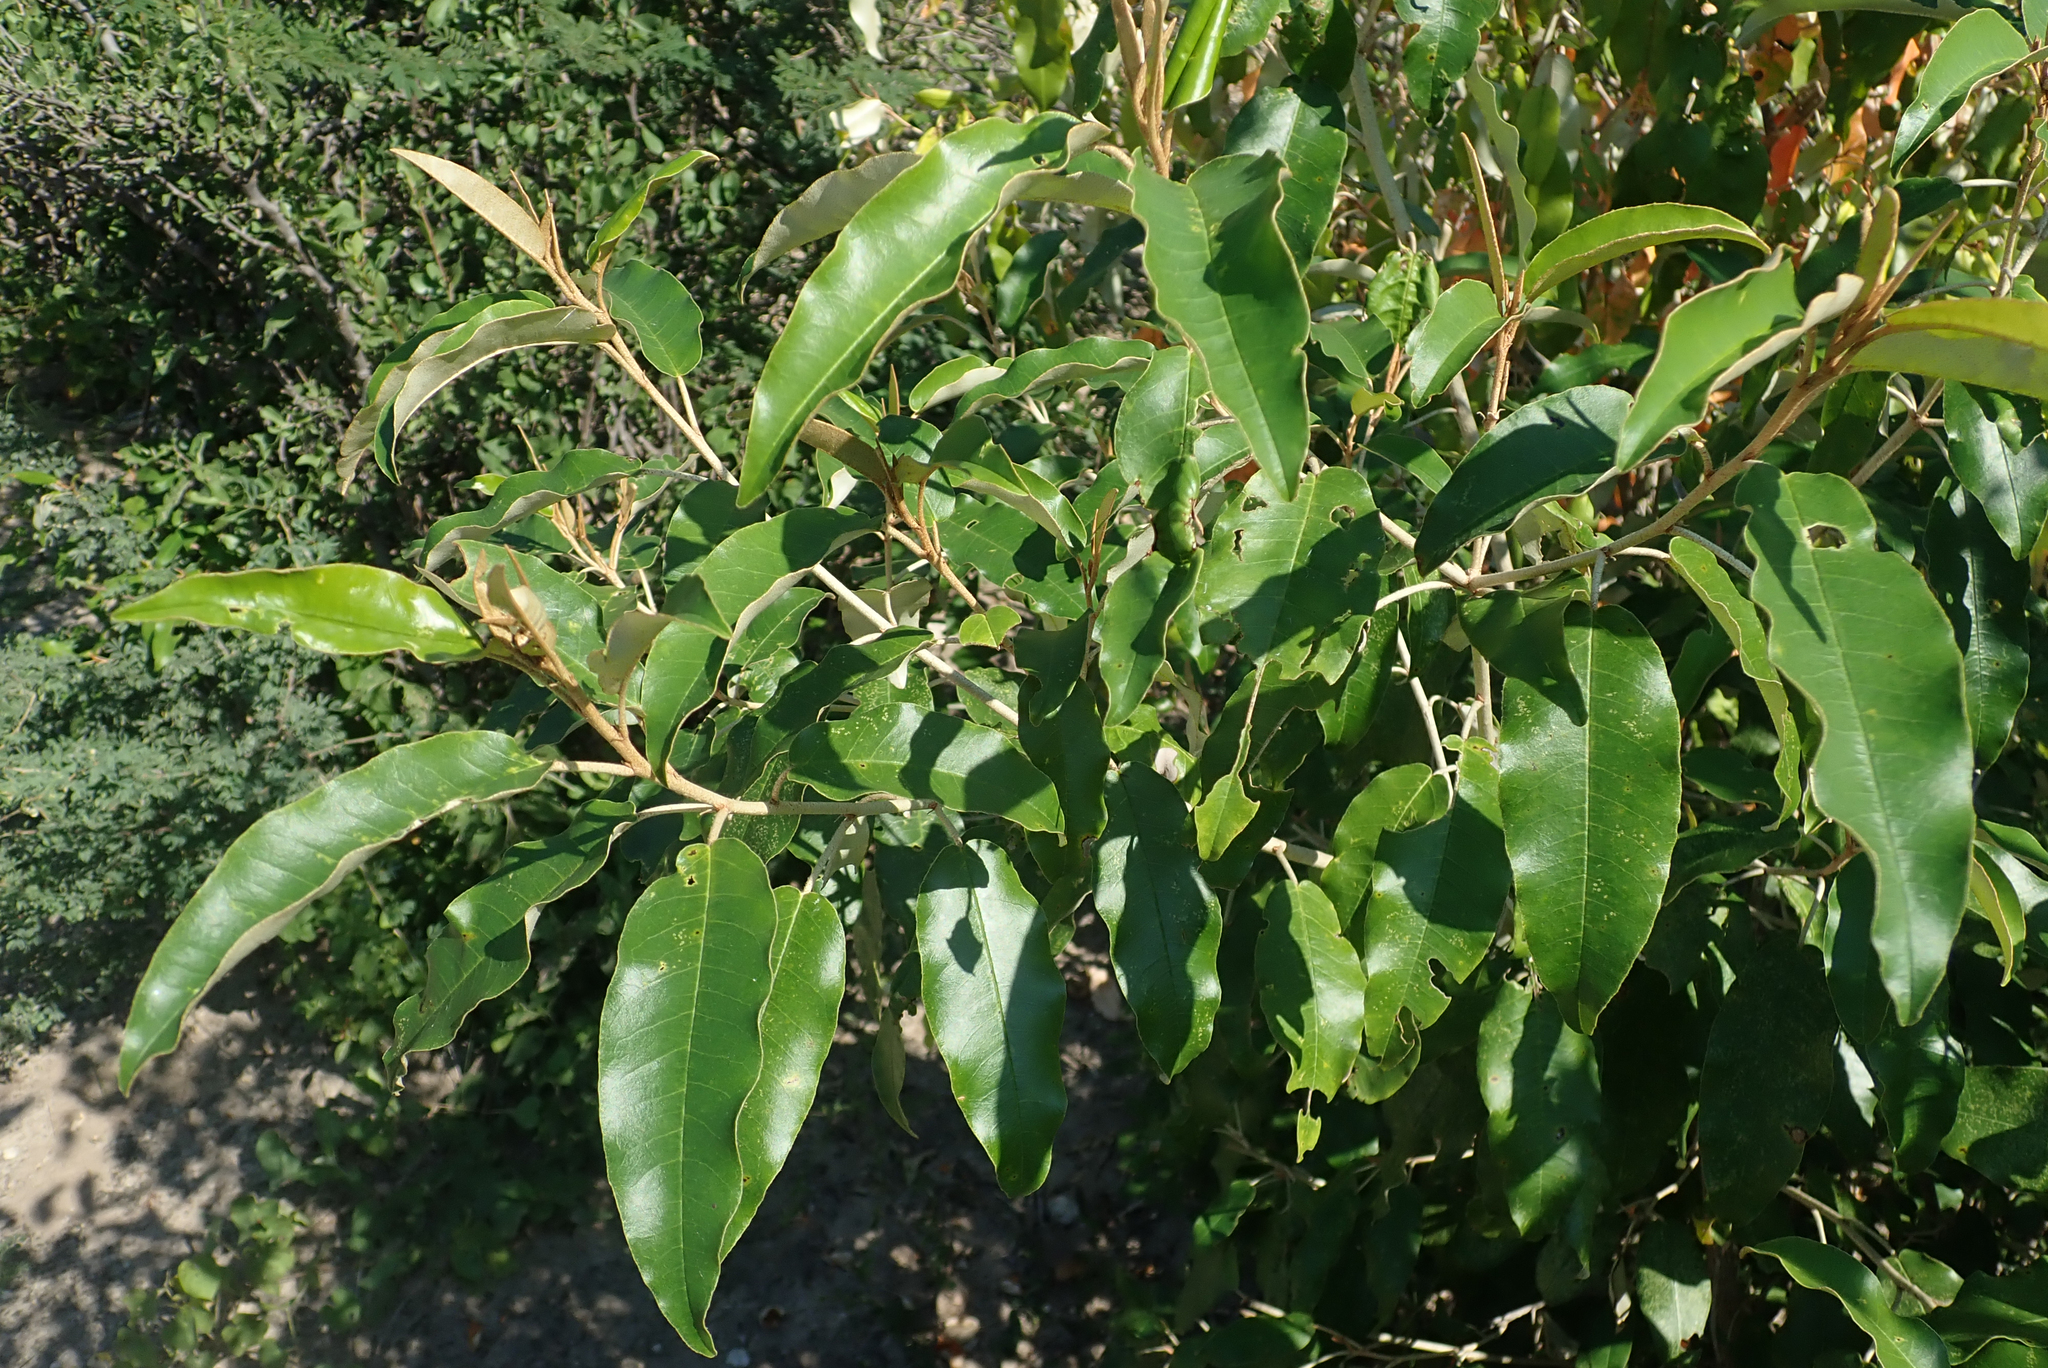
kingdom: Plantae
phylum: Tracheophyta
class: Magnoliopsida
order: Malpighiales
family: Euphorbiaceae
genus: Croton
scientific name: Croton gratissimus
